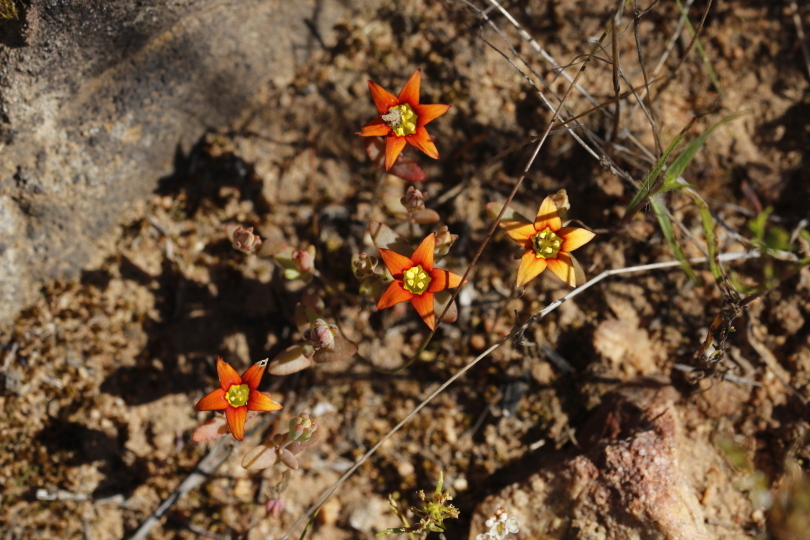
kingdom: Plantae
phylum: Tracheophyta
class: Magnoliopsida
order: Saxifragales
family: Crassulaceae
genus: Crassula
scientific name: Crassula dichotoma
